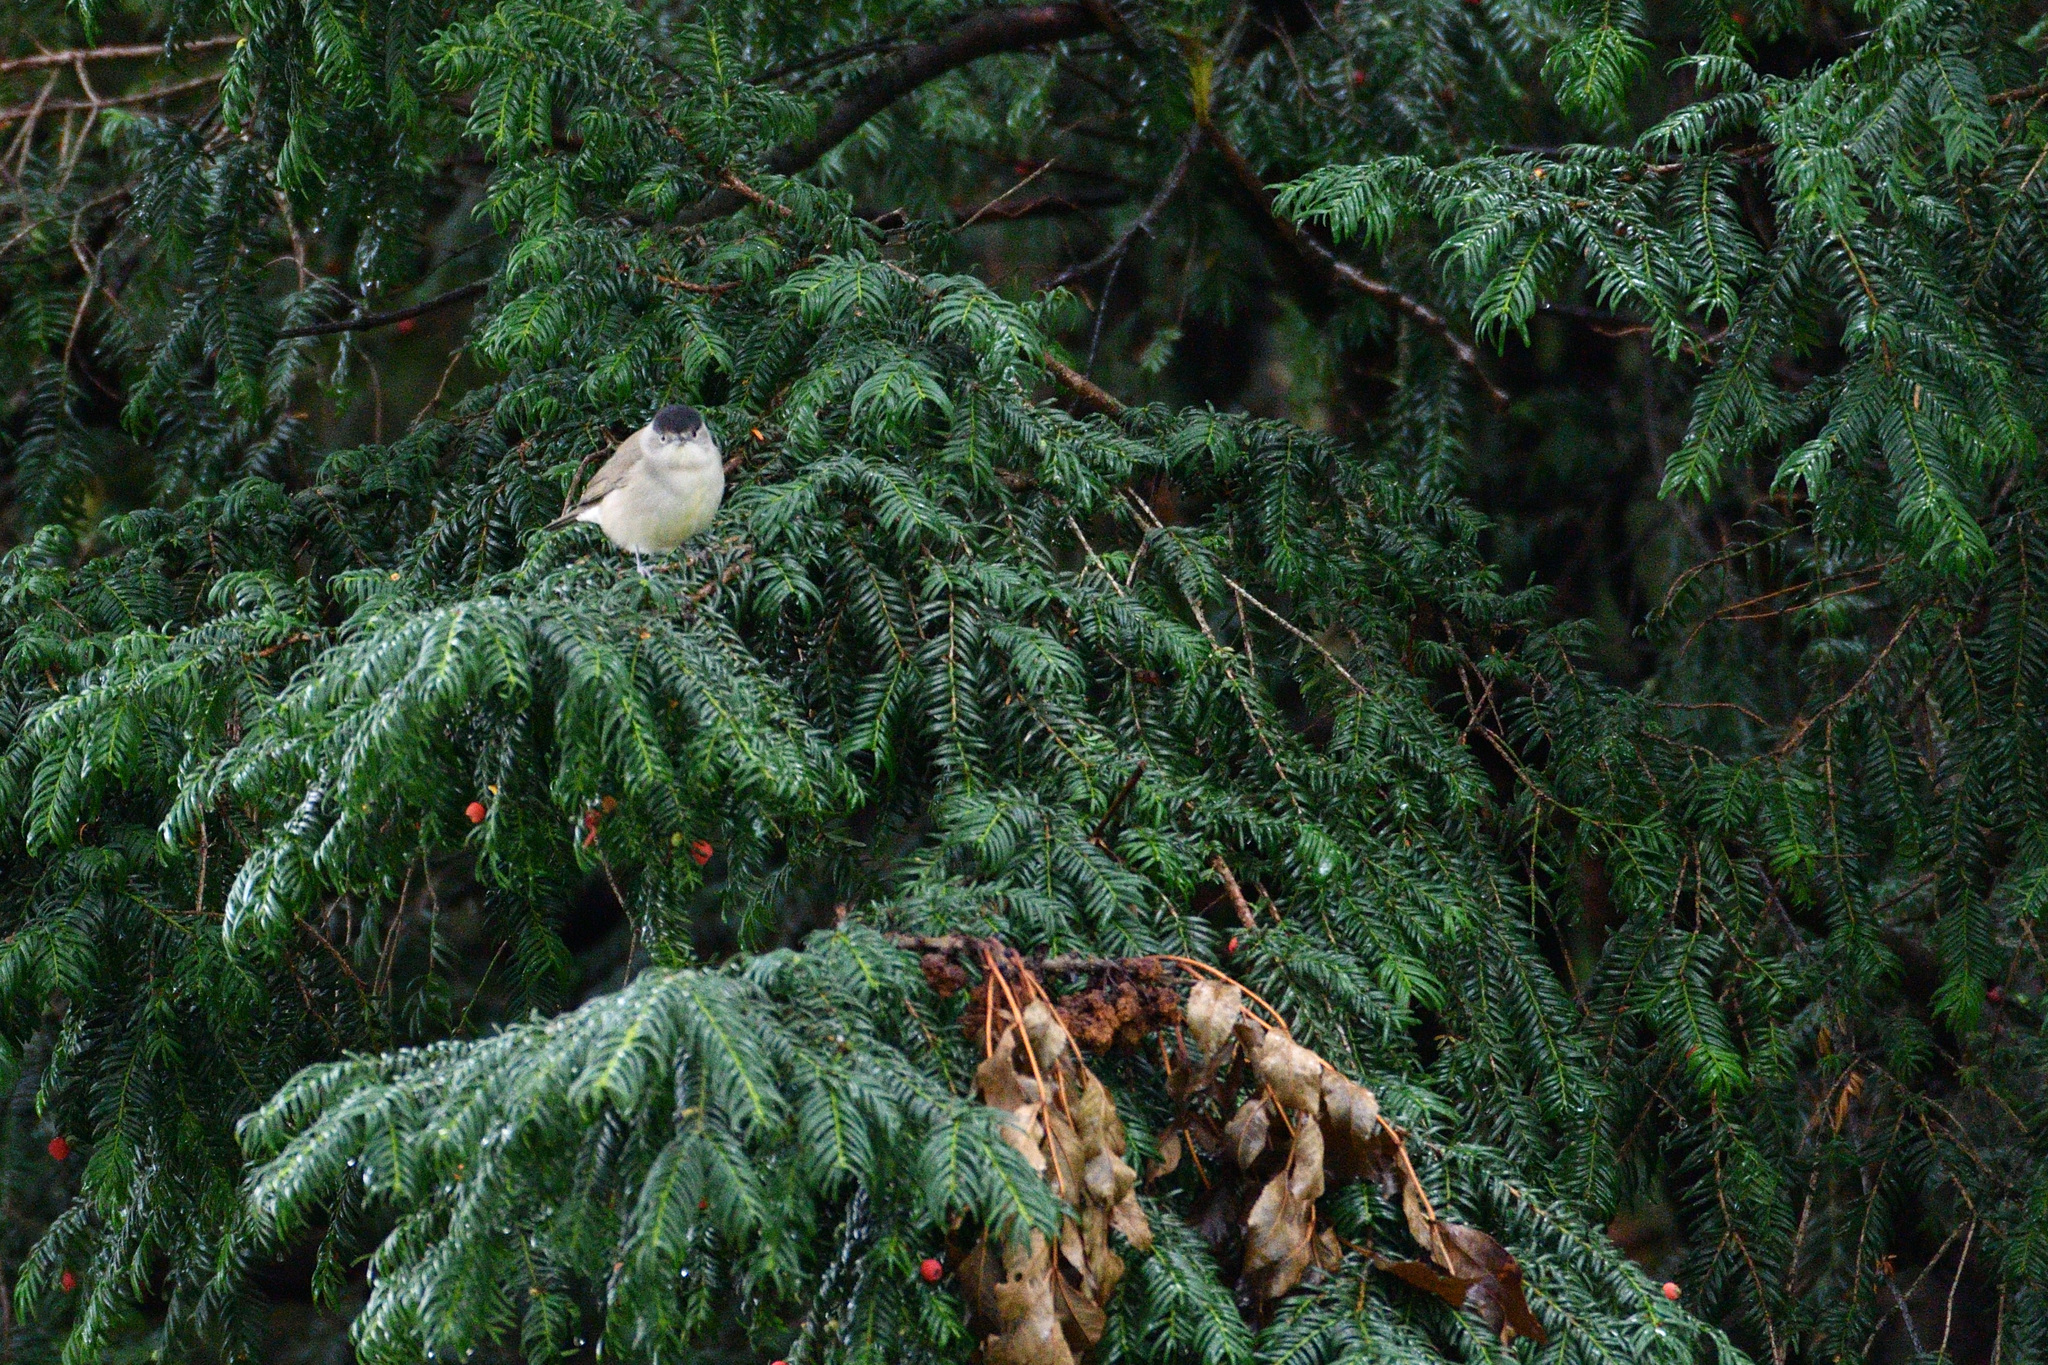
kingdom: Animalia
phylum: Chordata
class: Aves
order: Passeriformes
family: Sylviidae
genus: Sylvia
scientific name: Sylvia atricapilla
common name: Eurasian blackcap
